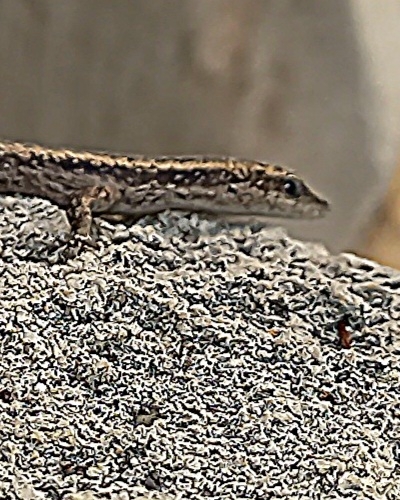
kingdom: Animalia
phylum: Chordata
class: Squamata
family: Scincidae
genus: Cryptoblepharus
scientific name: Cryptoblepharus buchananii
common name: Buchanan's snake-eyed skink
